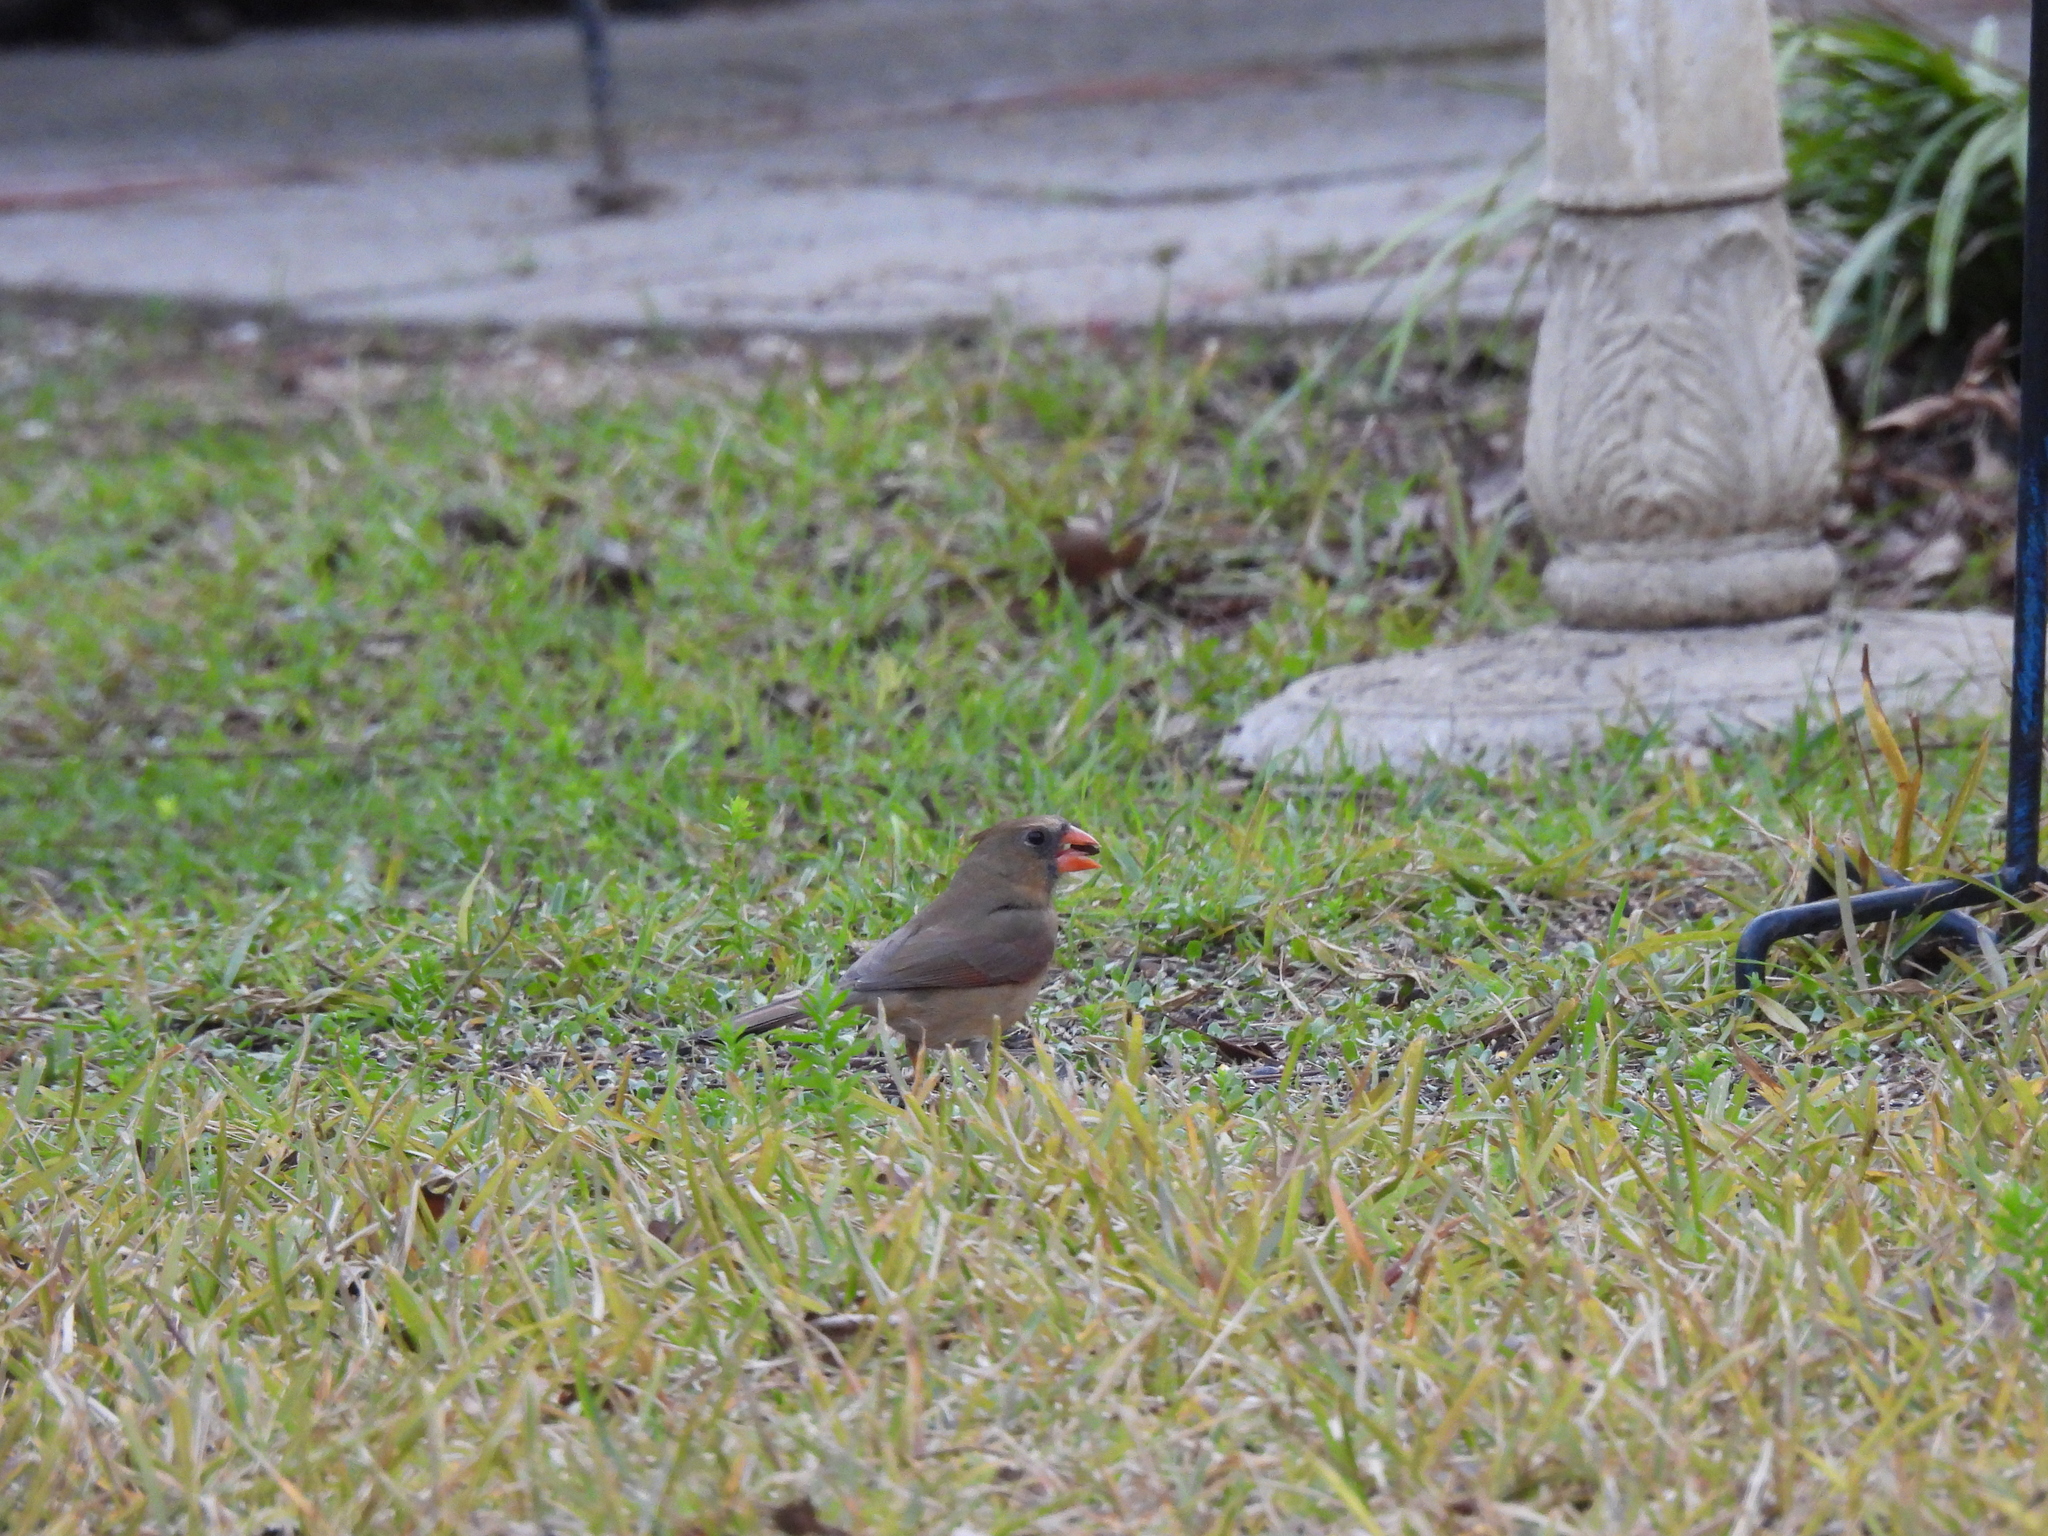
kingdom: Animalia
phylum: Chordata
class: Aves
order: Passeriformes
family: Cardinalidae
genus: Cardinalis
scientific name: Cardinalis cardinalis
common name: Northern cardinal
